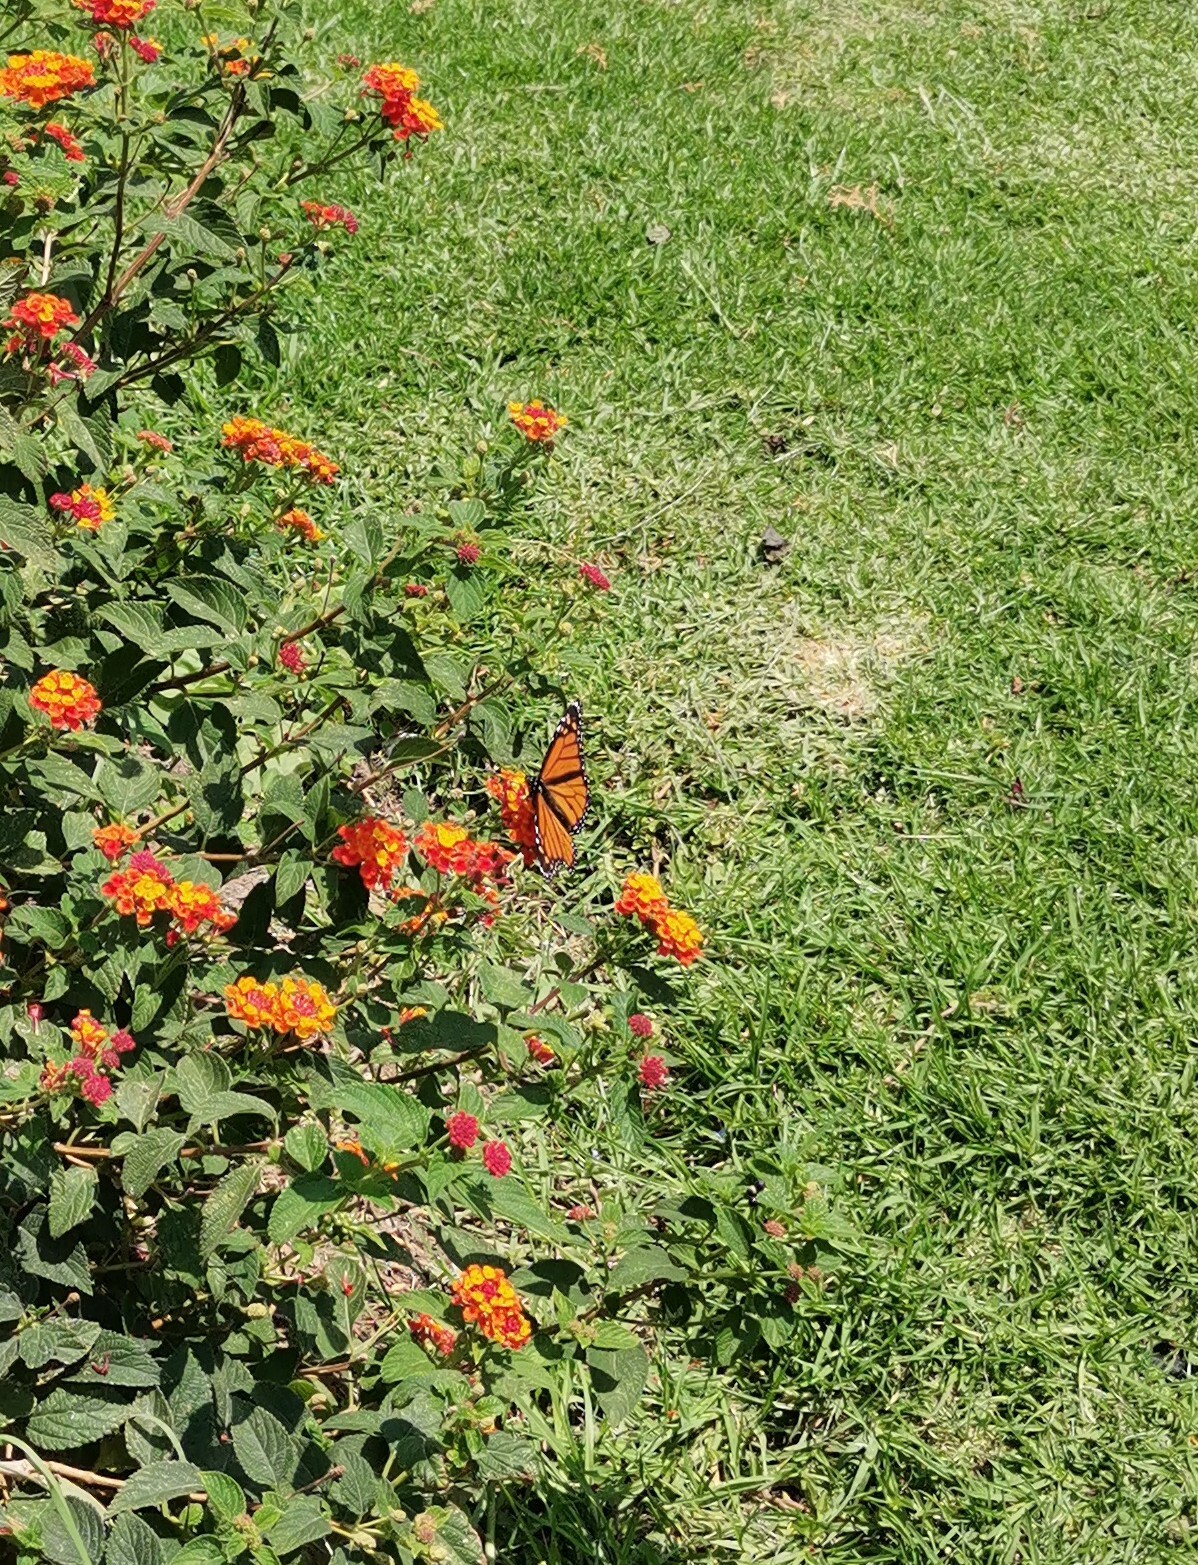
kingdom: Animalia
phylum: Arthropoda
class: Insecta
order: Lepidoptera
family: Nymphalidae
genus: Danaus
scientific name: Danaus plexippus
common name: Monarch
